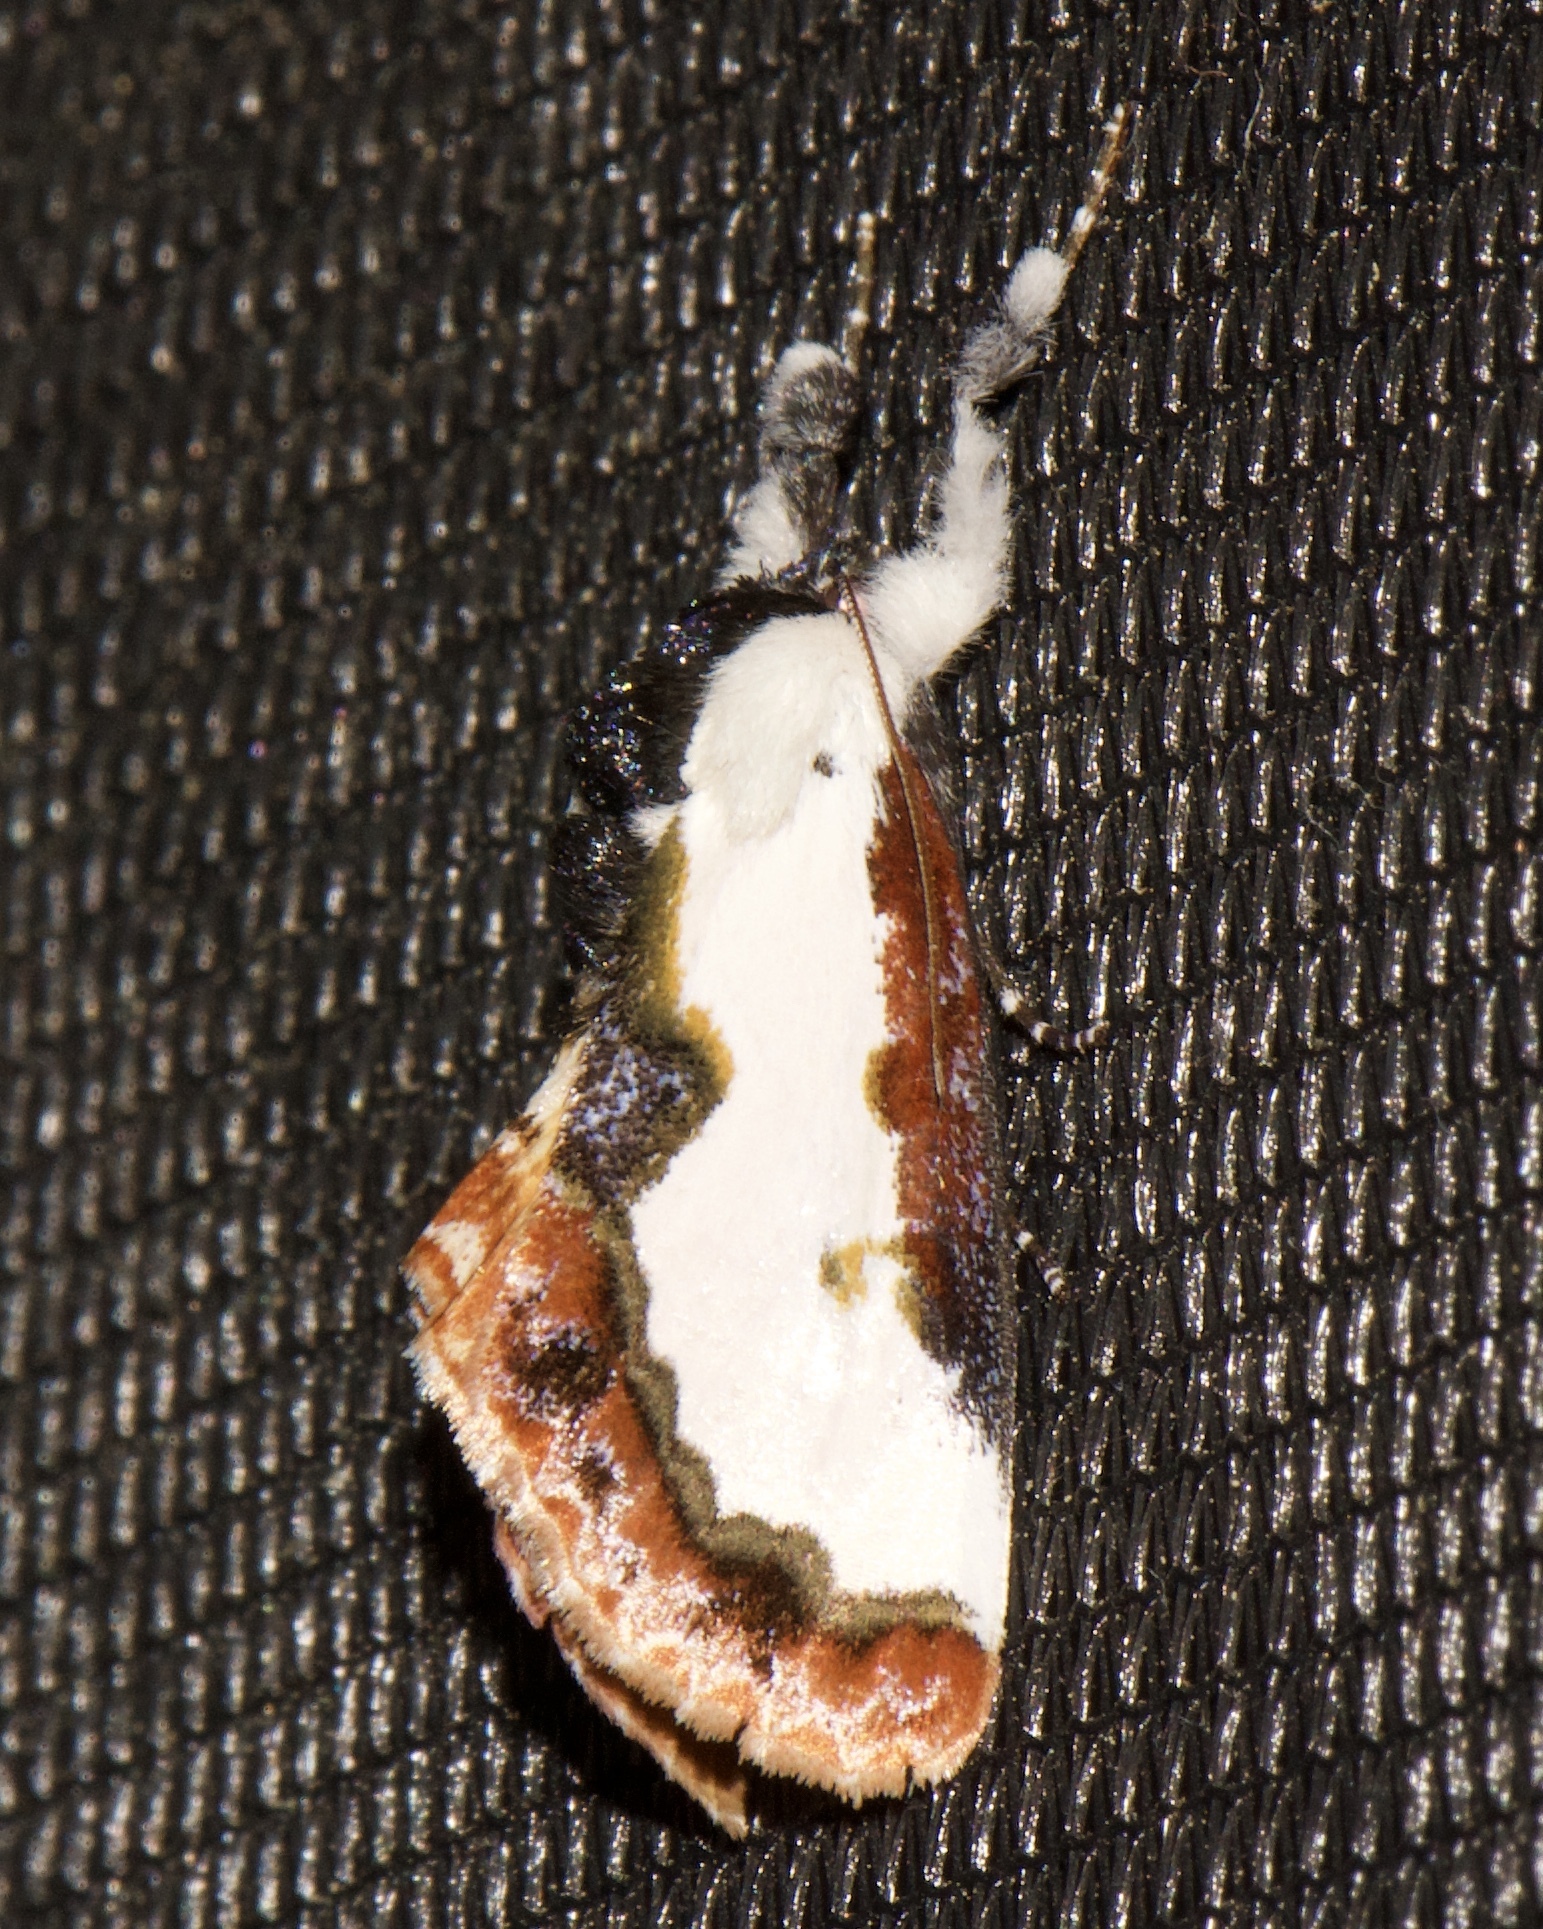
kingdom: Animalia
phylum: Arthropoda
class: Insecta
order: Lepidoptera
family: Noctuidae
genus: Eudryas
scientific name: Eudryas unio
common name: Pearly wood-nymph
